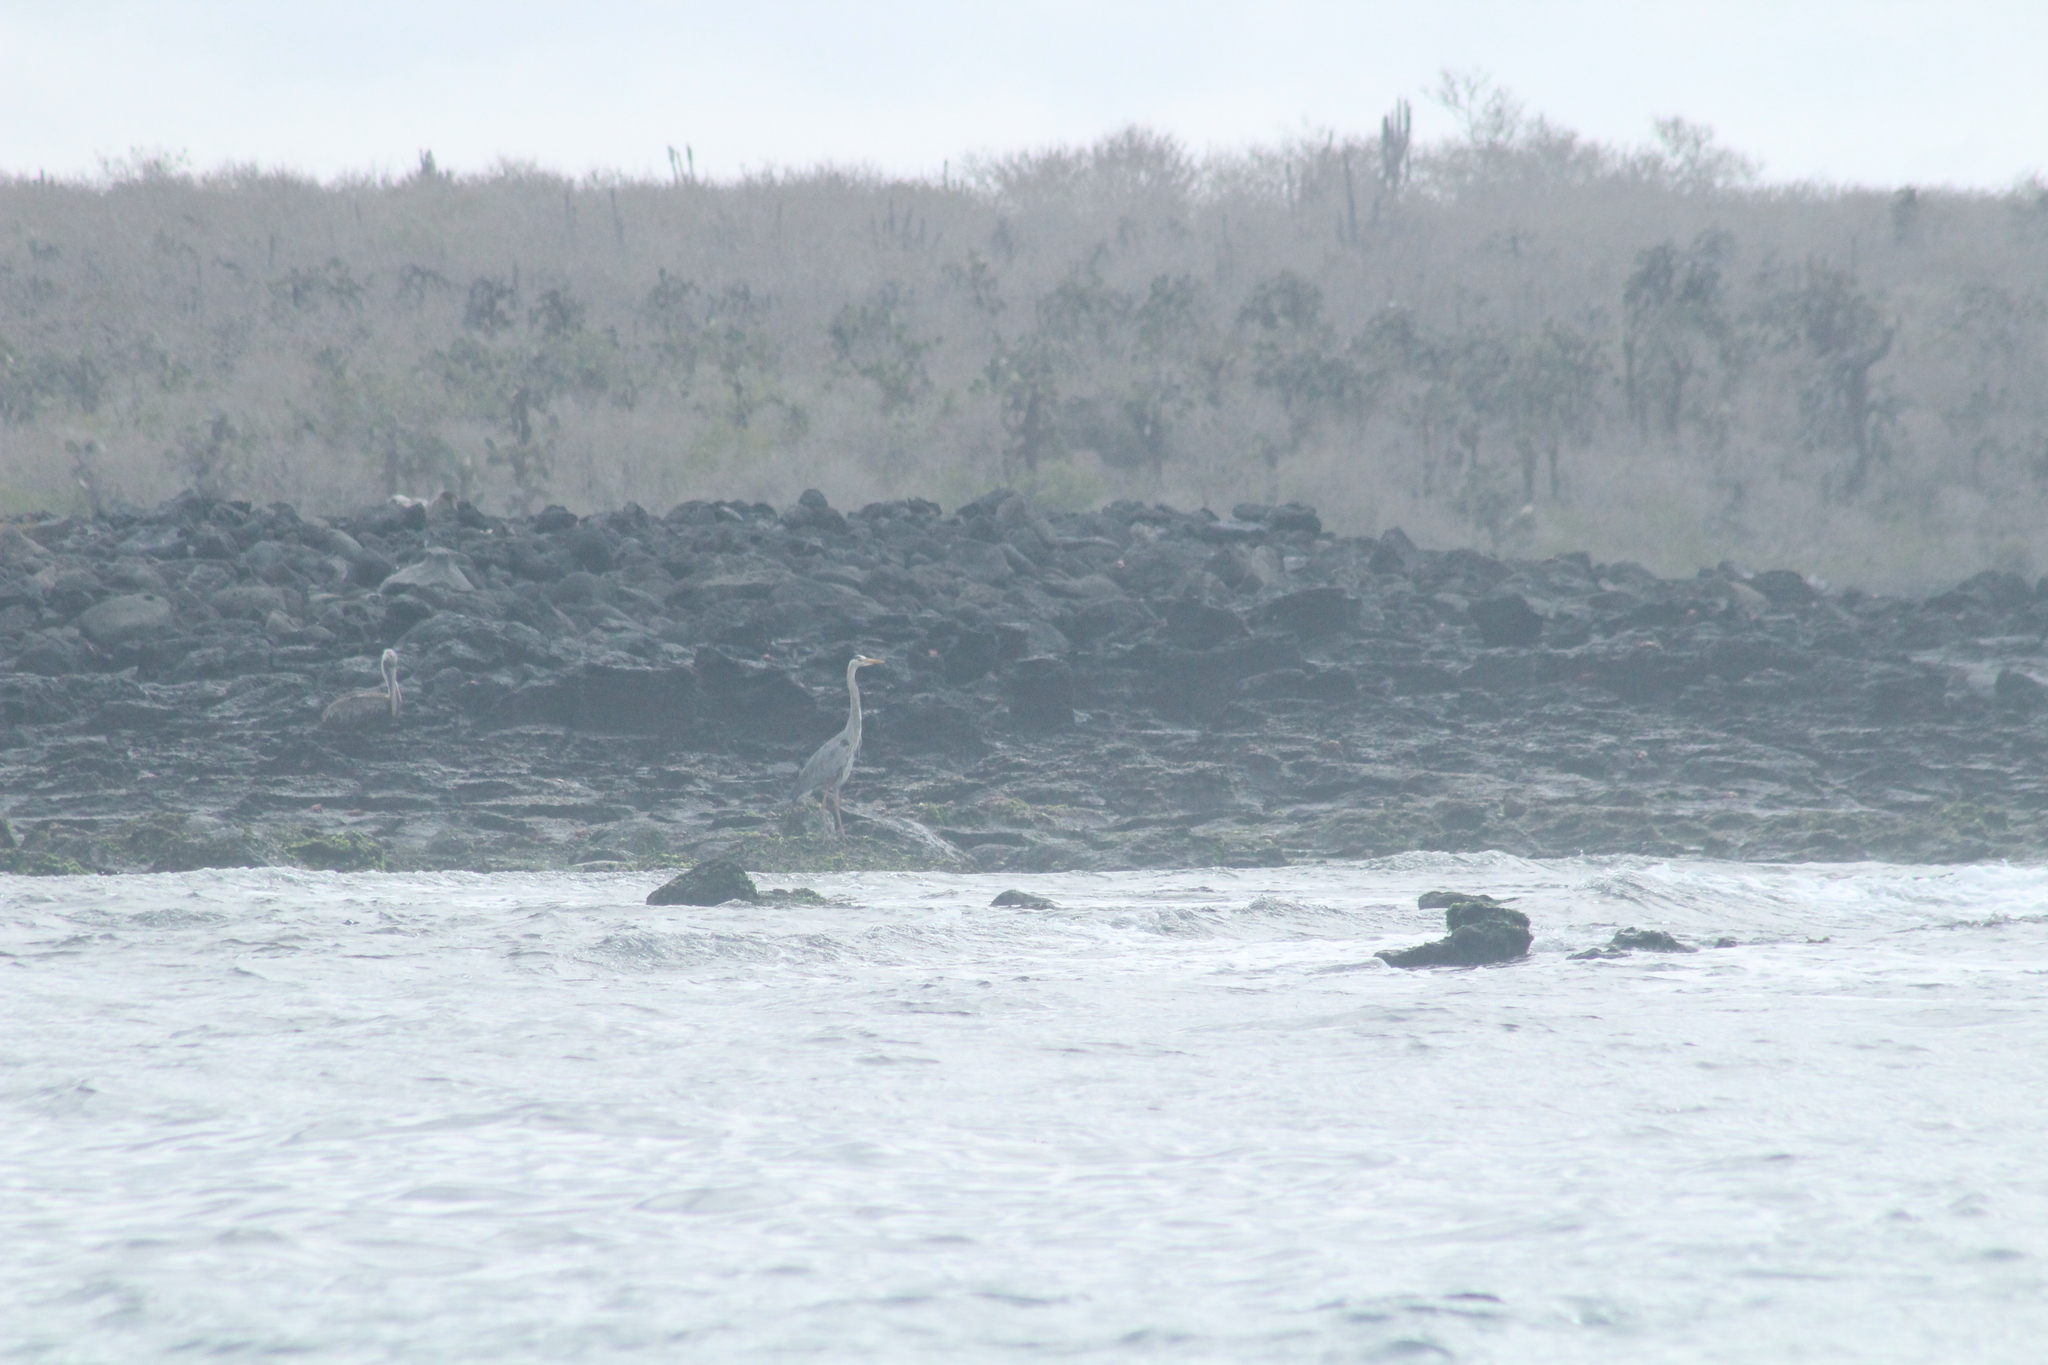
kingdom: Animalia
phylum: Chordata
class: Aves
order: Pelecaniformes
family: Ardeidae
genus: Ardea
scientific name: Ardea herodias
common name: Great blue heron
